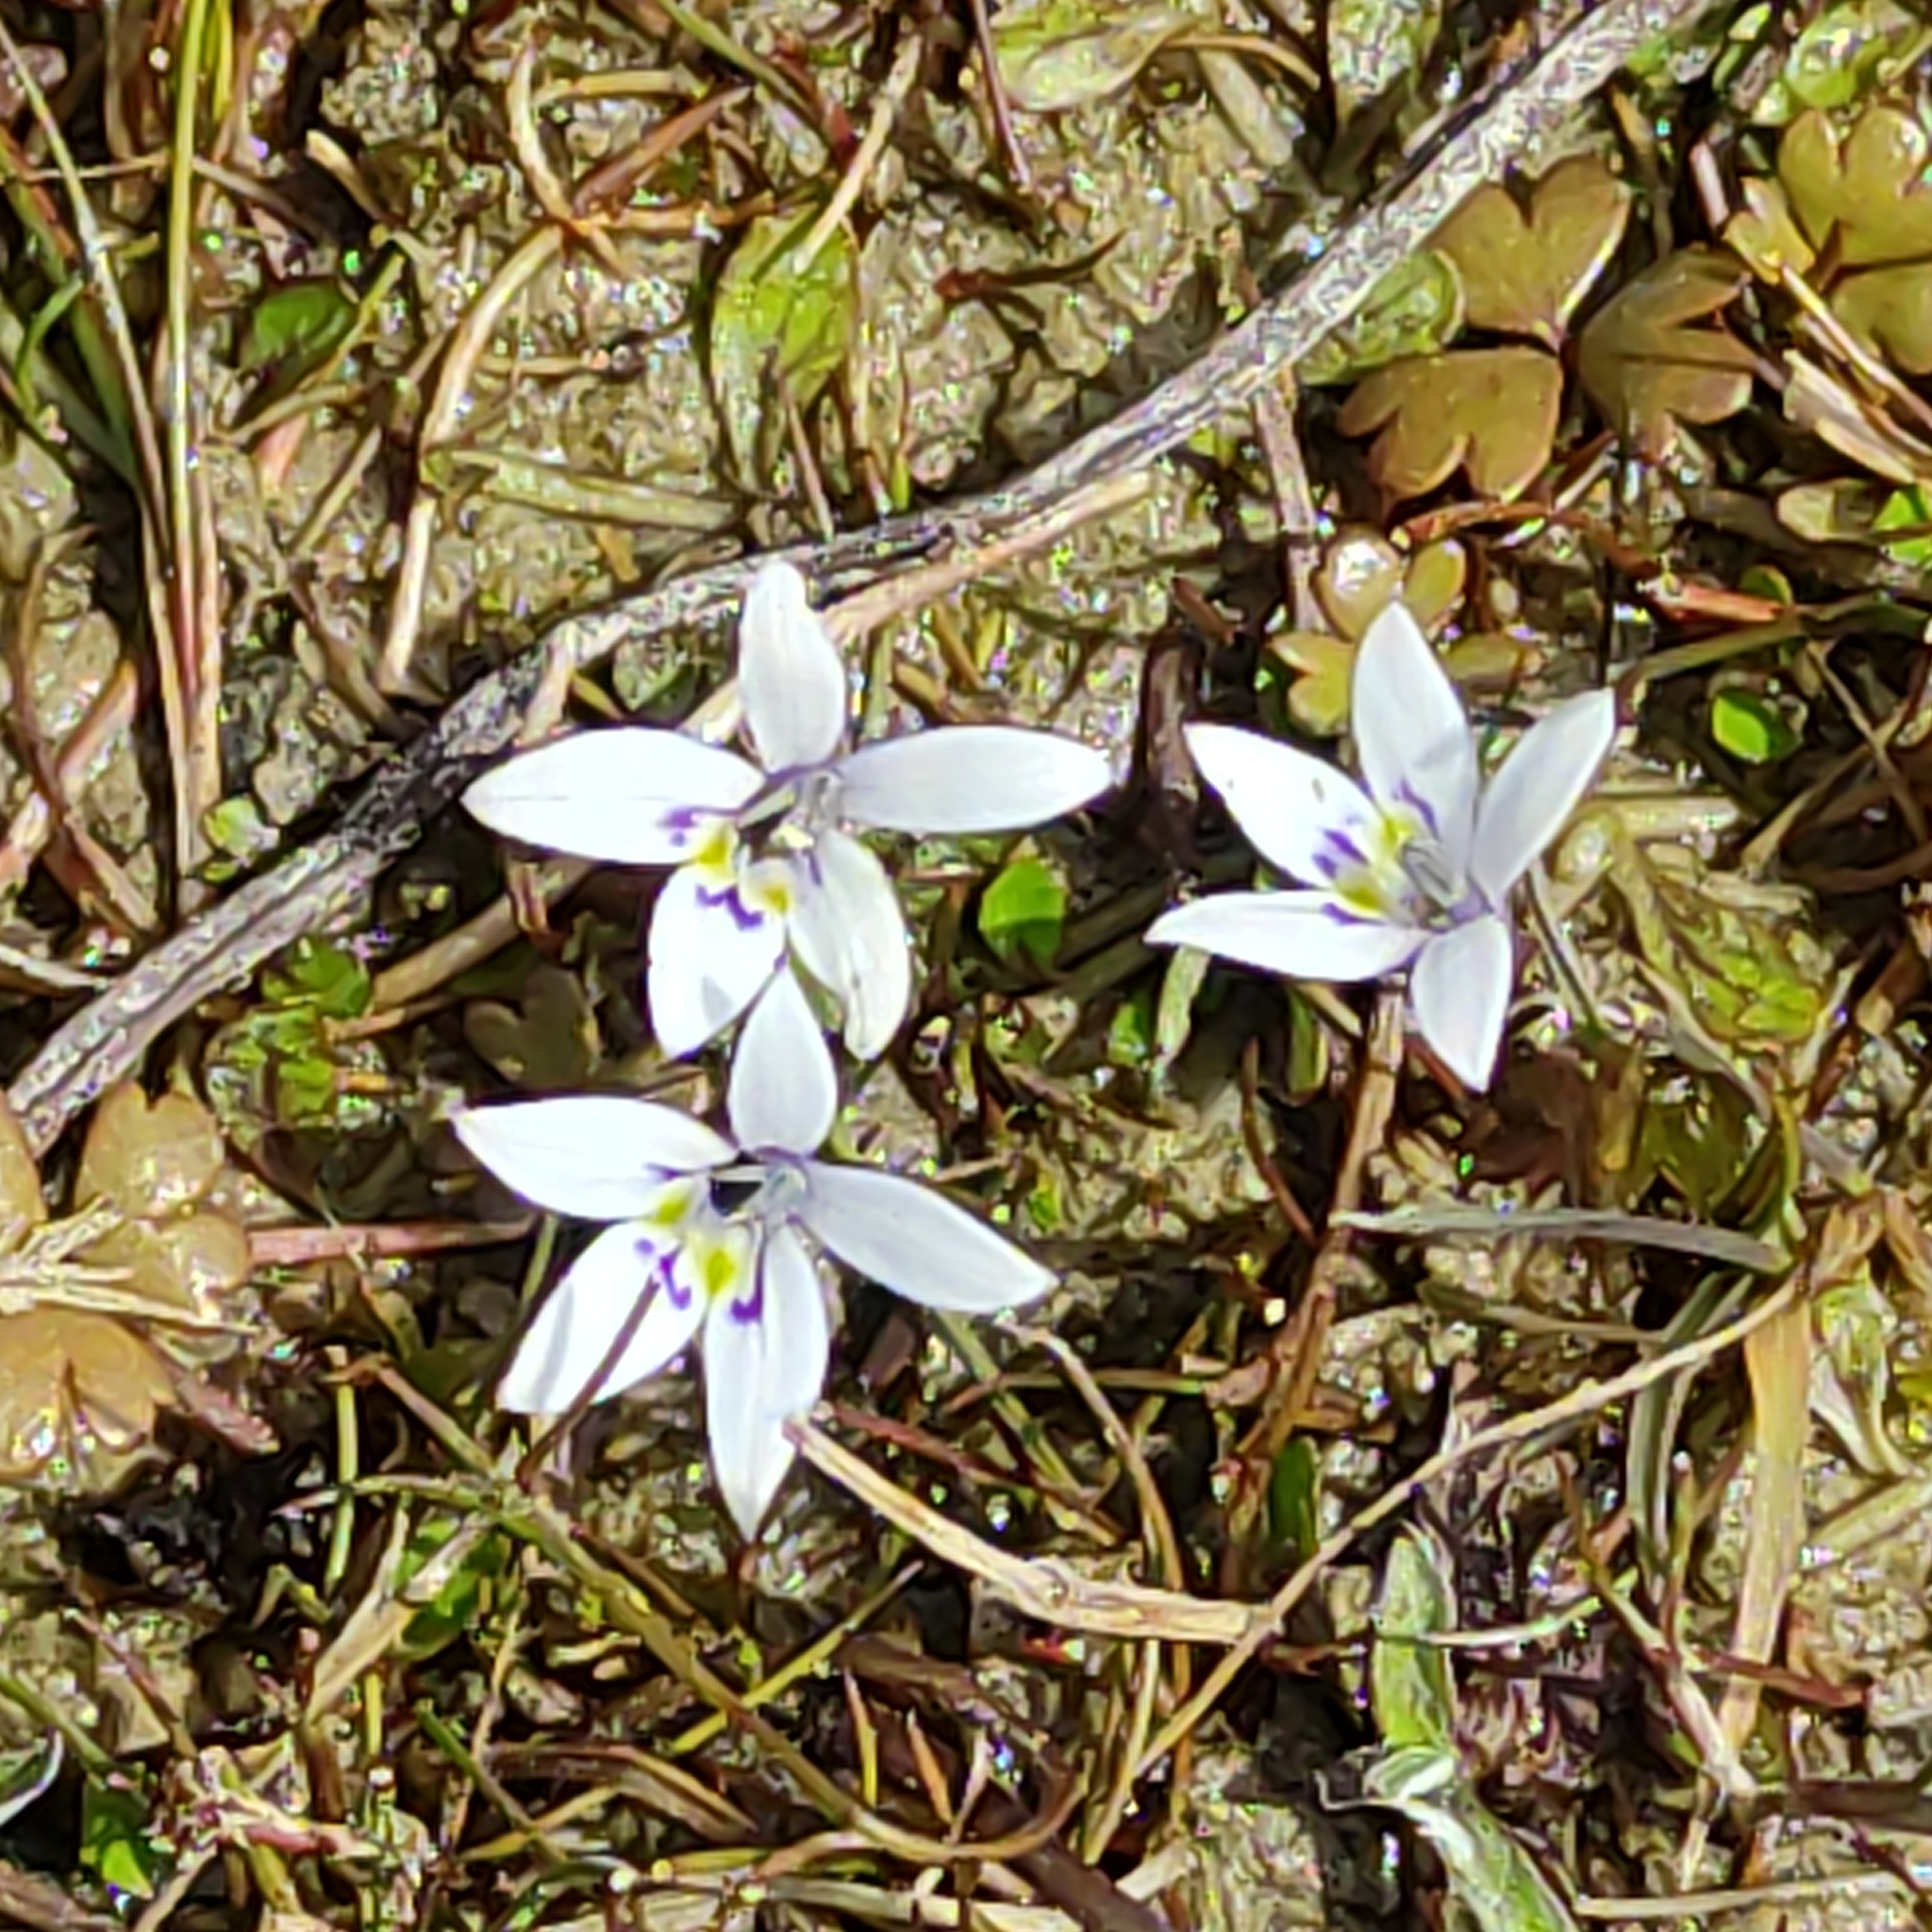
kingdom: Plantae
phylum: Tracheophyta
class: Magnoliopsida
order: Asterales
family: Campanulaceae
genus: Isotoma
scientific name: Isotoma rivalis
